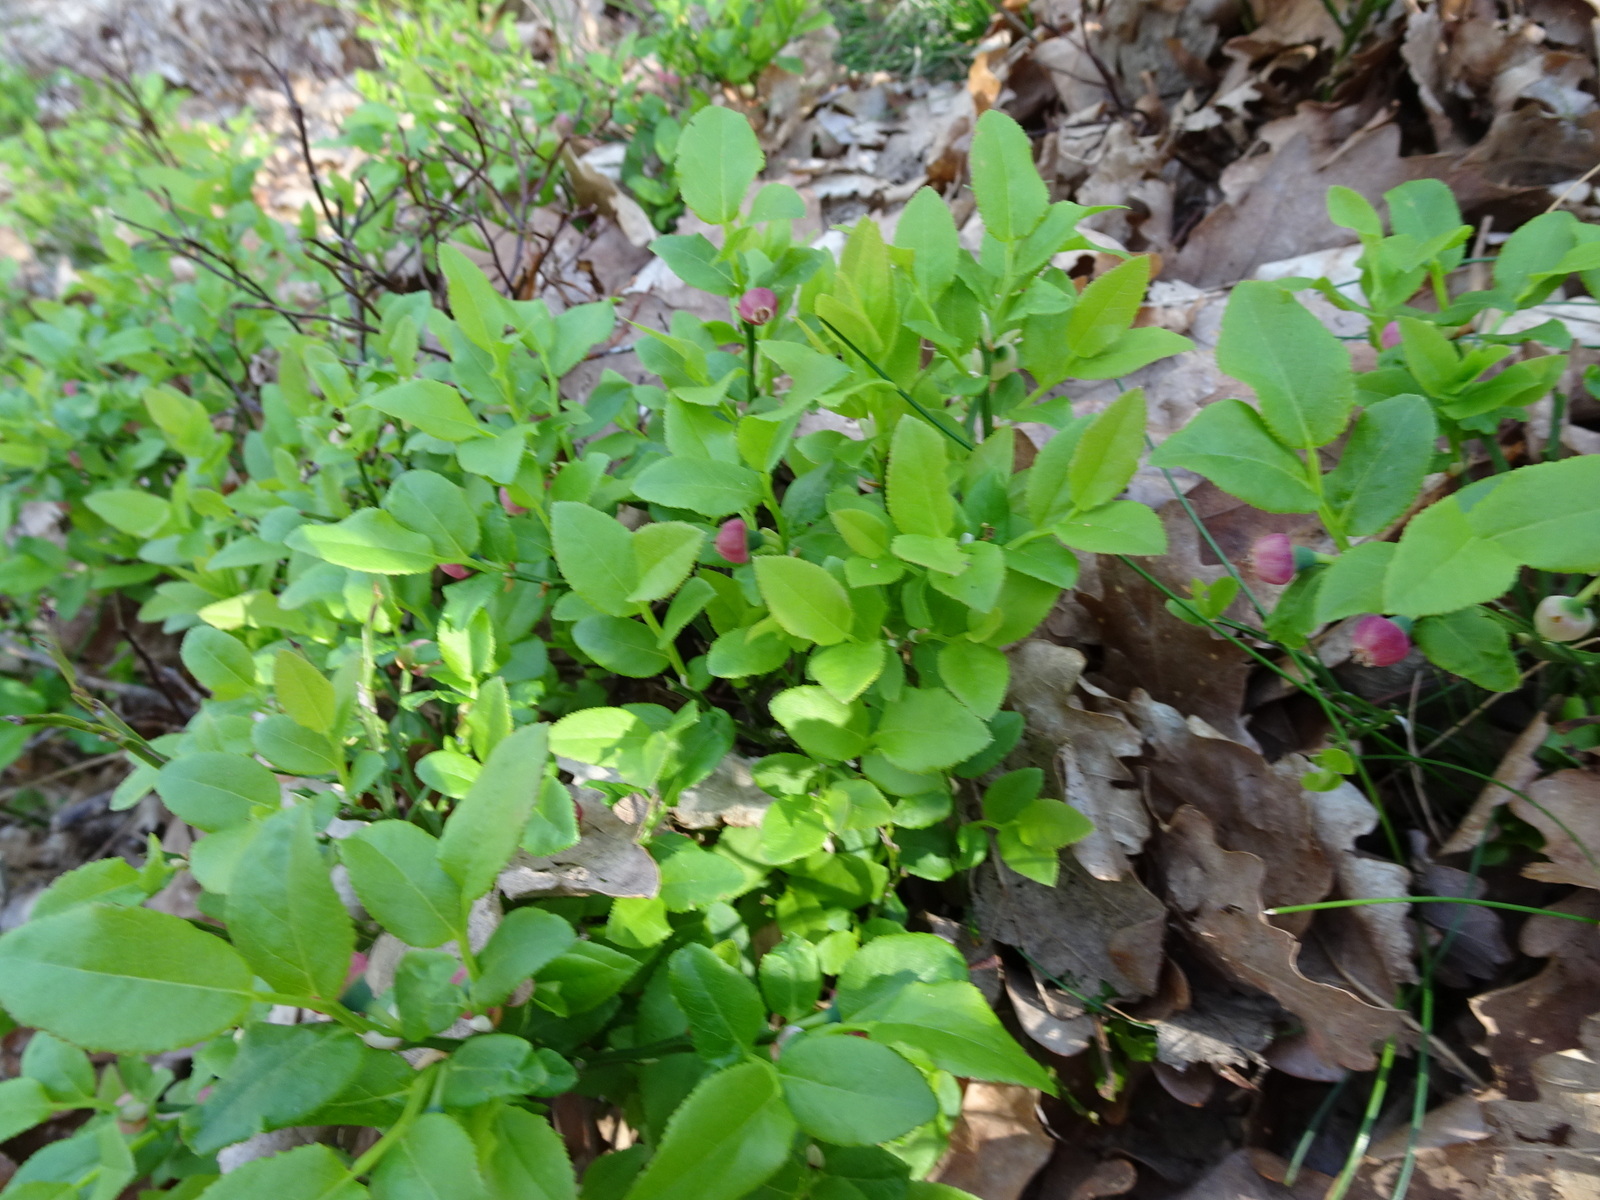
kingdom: Plantae
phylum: Tracheophyta
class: Magnoliopsida
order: Ericales
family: Ericaceae
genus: Vaccinium
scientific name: Vaccinium myrtillus
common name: Bilberry
